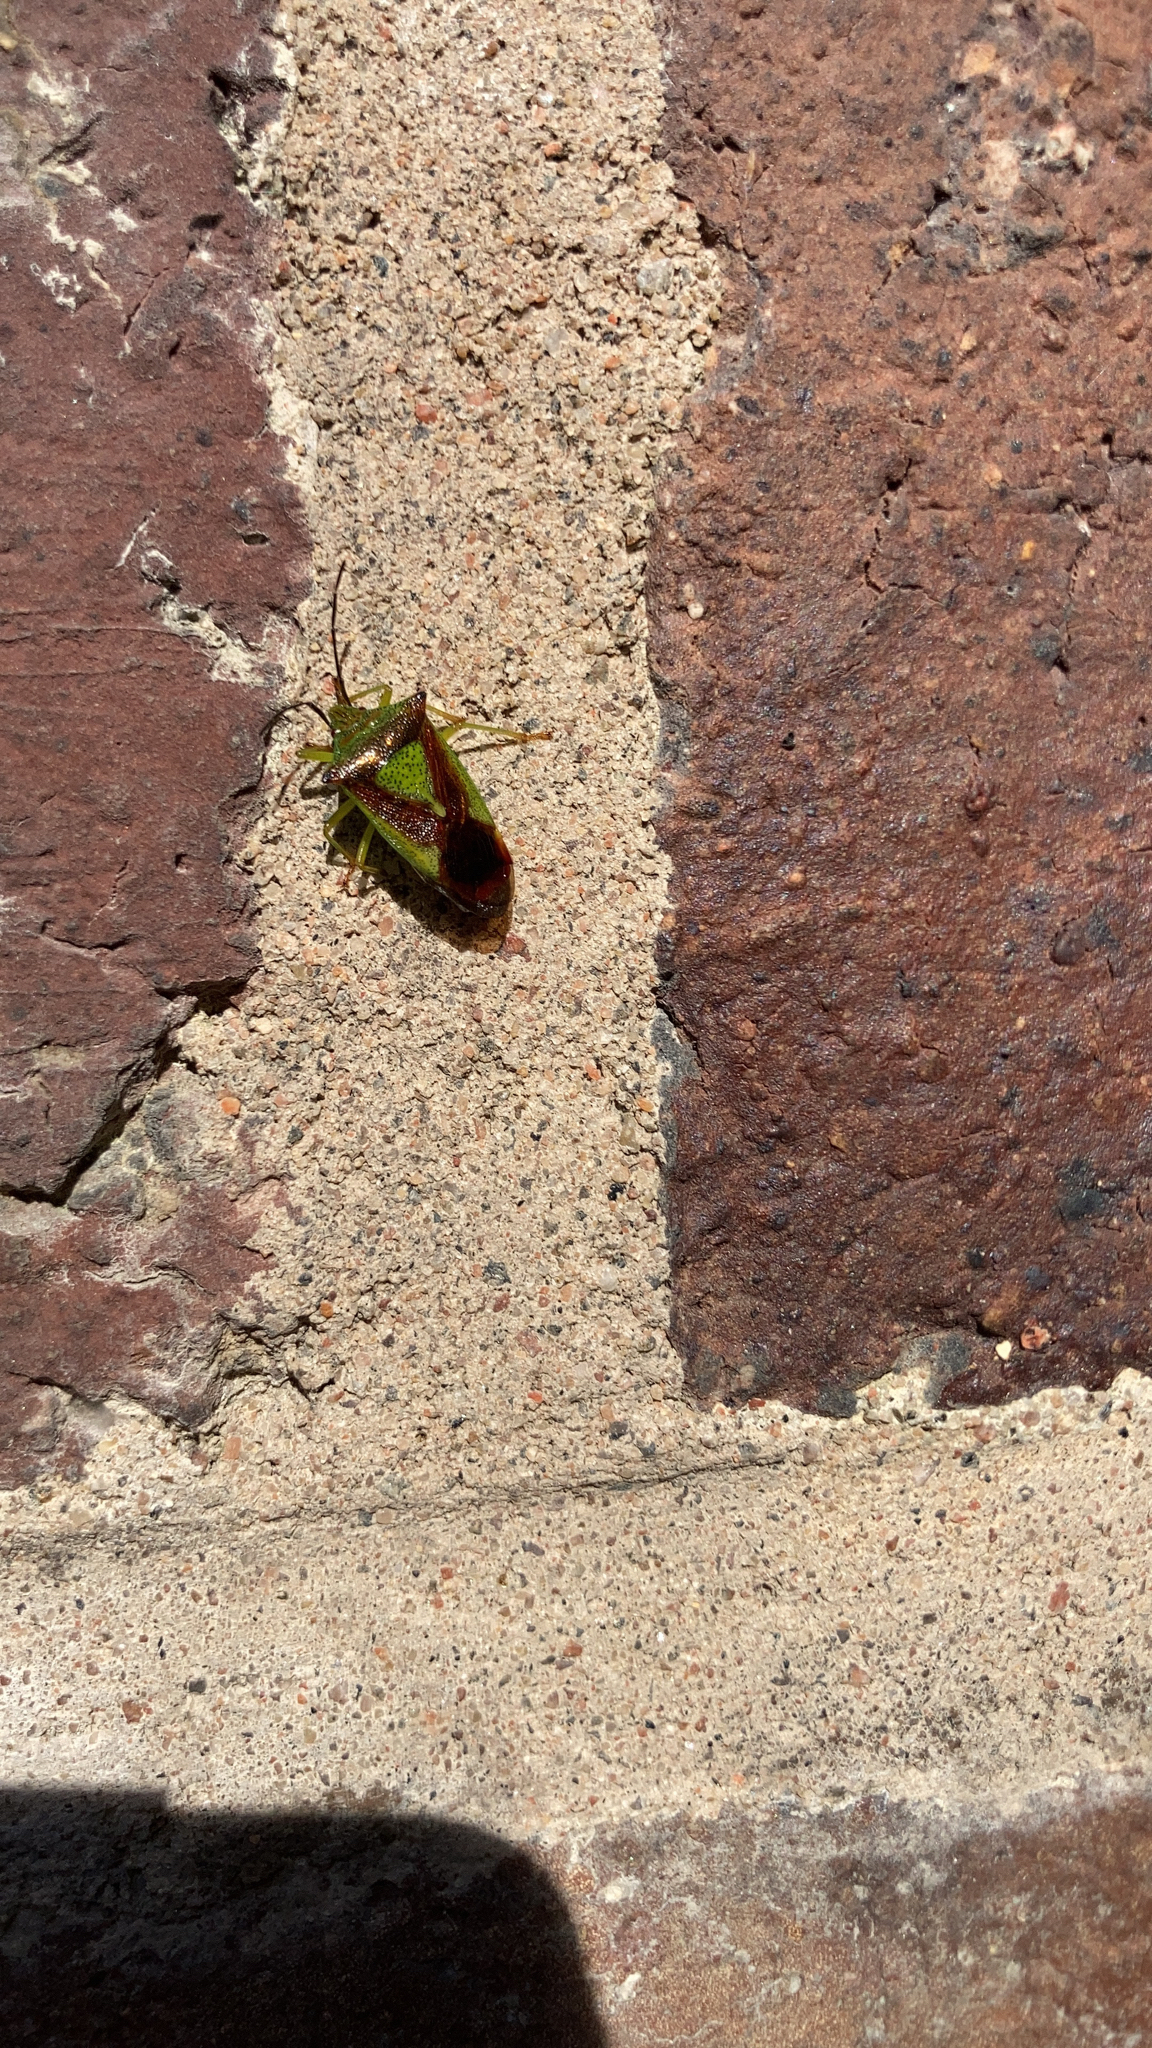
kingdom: Animalia
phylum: Arthropoda
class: Insecta
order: Hemiptera
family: Acanthosomatidae
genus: Acanthosoma
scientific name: Acanthosoma haemorrhoidale
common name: Hawthorn shieldbug
